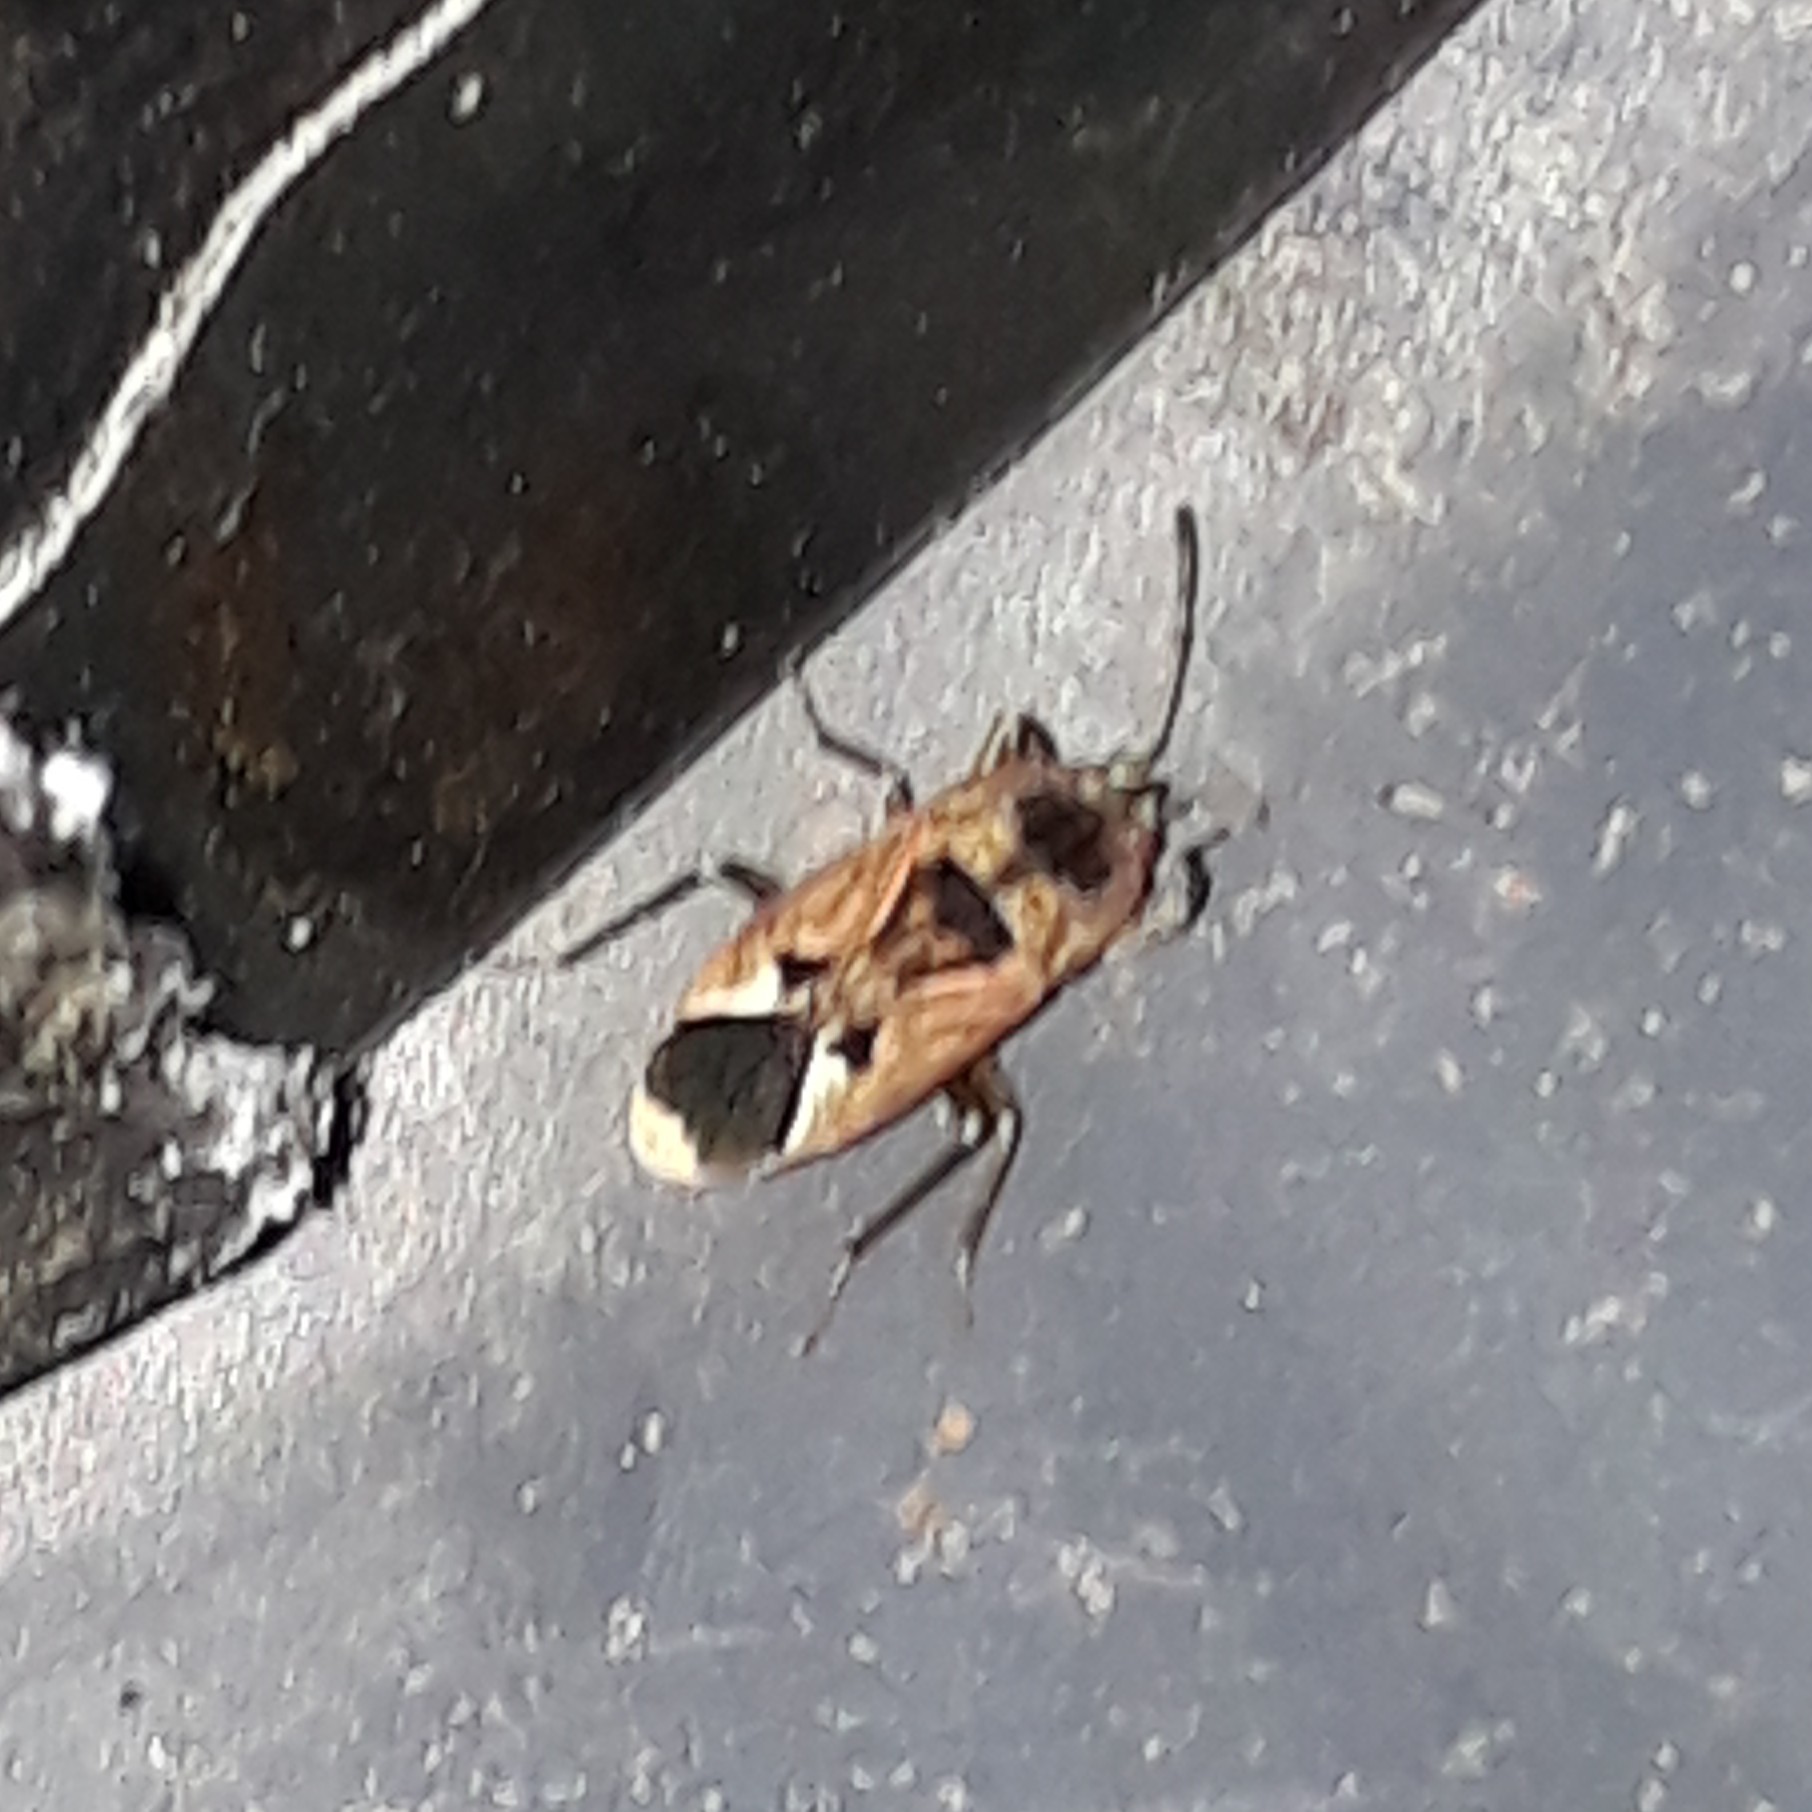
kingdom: Animalia
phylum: Arthropoda
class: Insecta
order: Hemiptera
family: Rhyparochromidae
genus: Naphius
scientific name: Naphius apicalis
